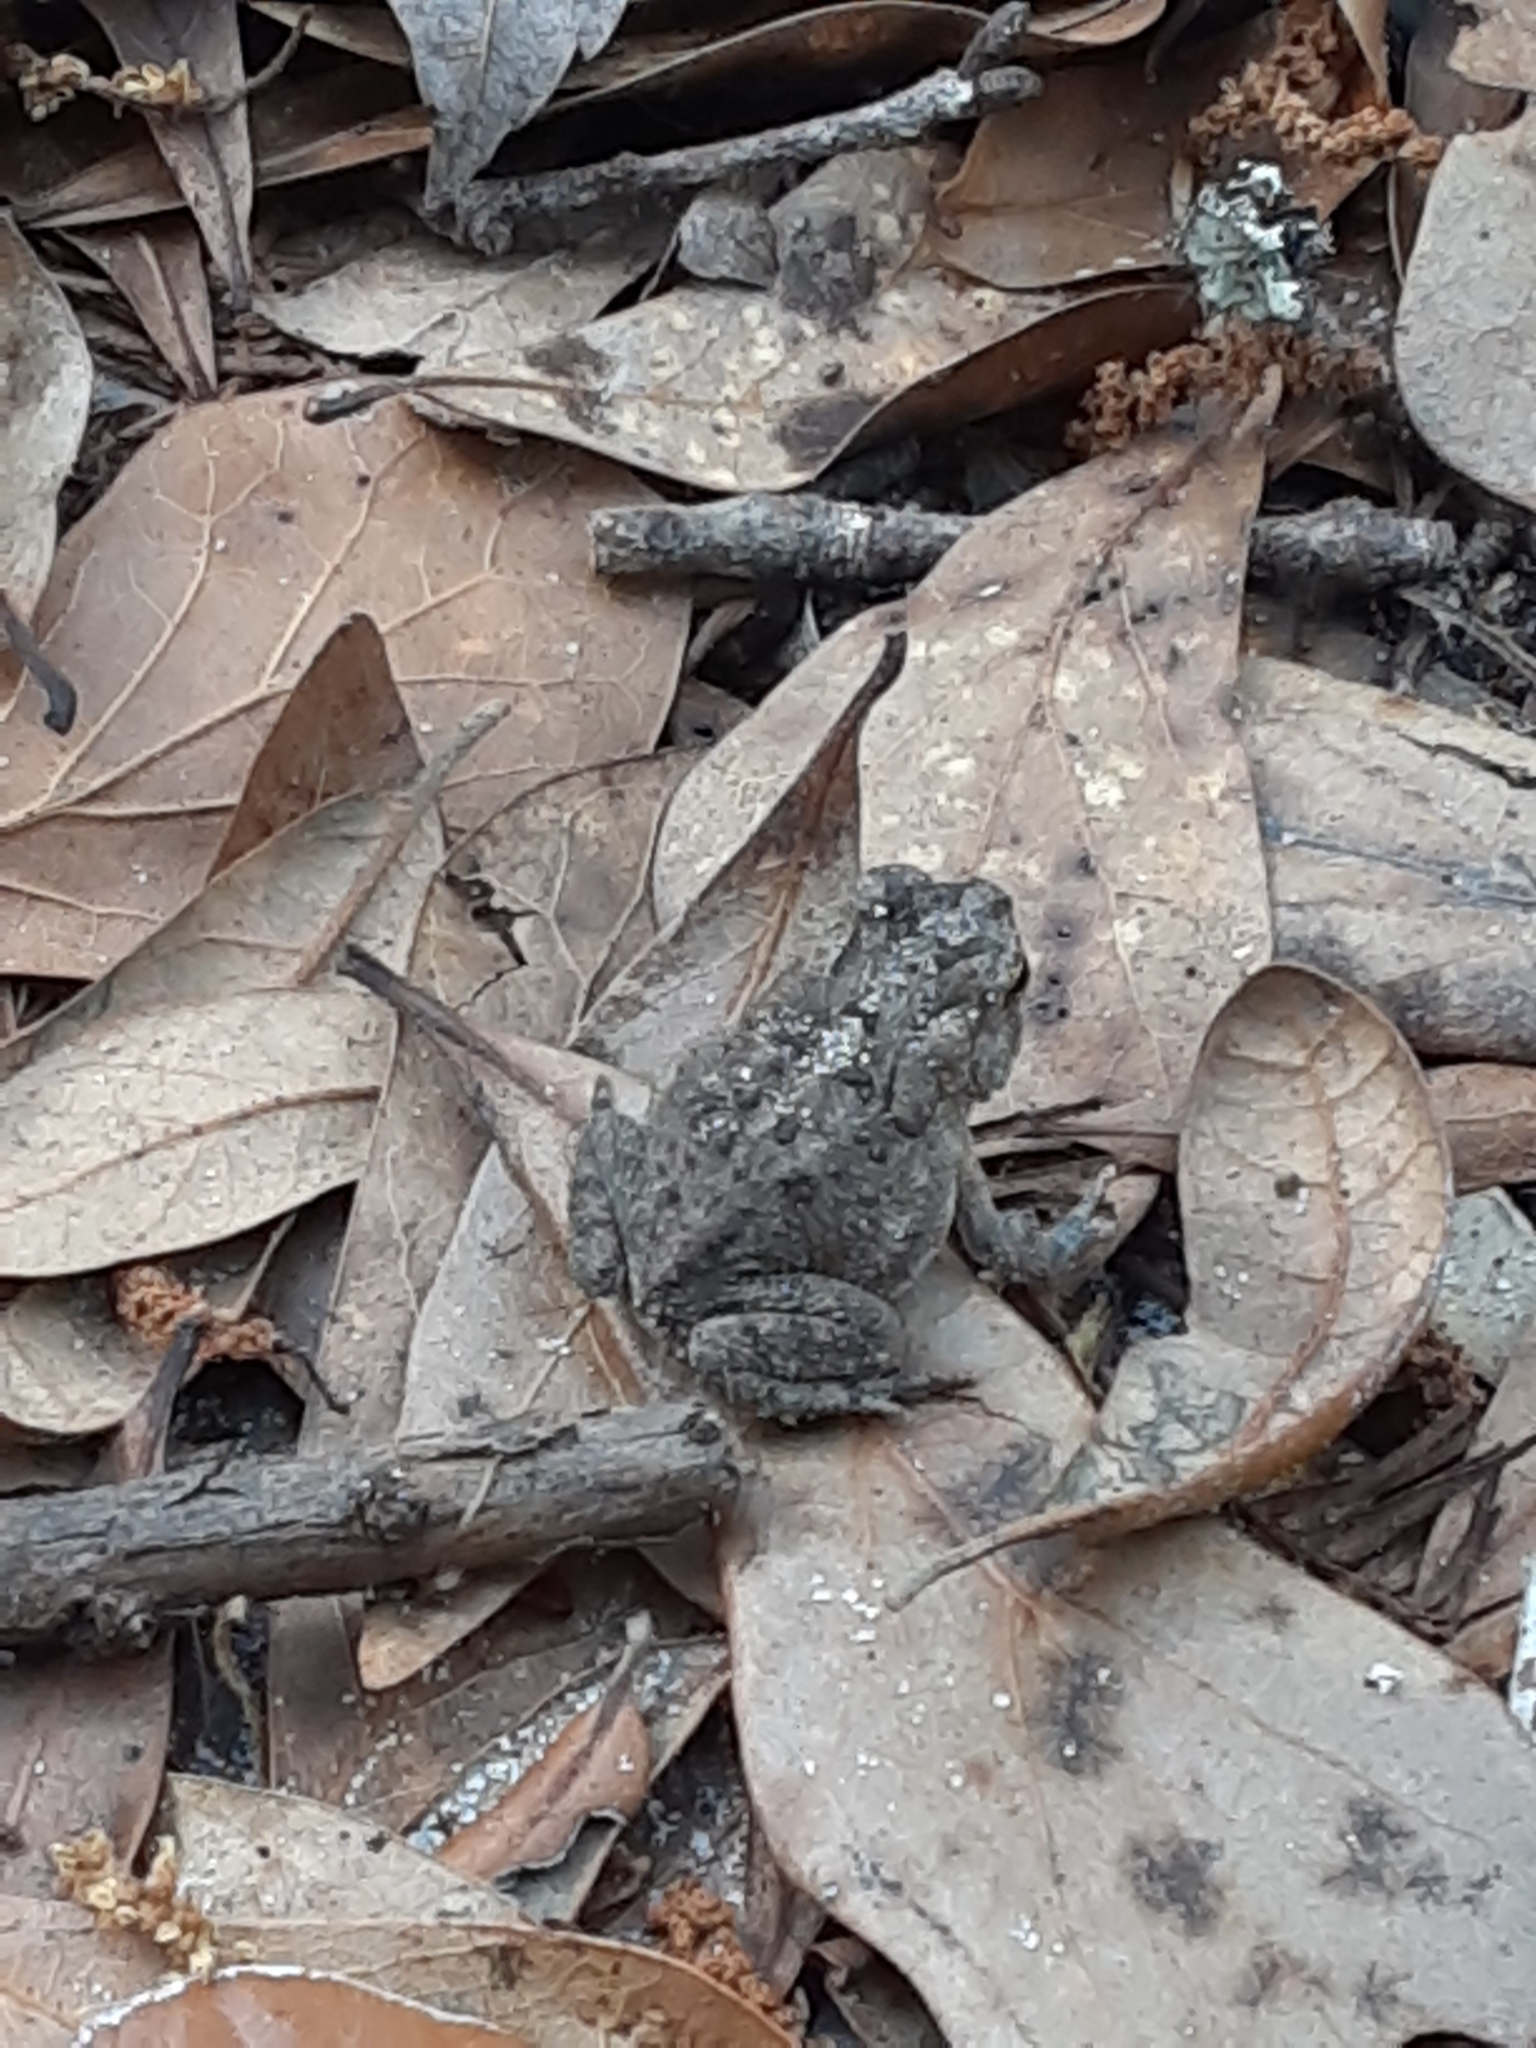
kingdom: Animalia
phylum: Chordata
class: Amphibia
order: Anura
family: Bufonidae
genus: Anaxyrus
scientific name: Anaxyrus terrestris
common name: Southern toad
